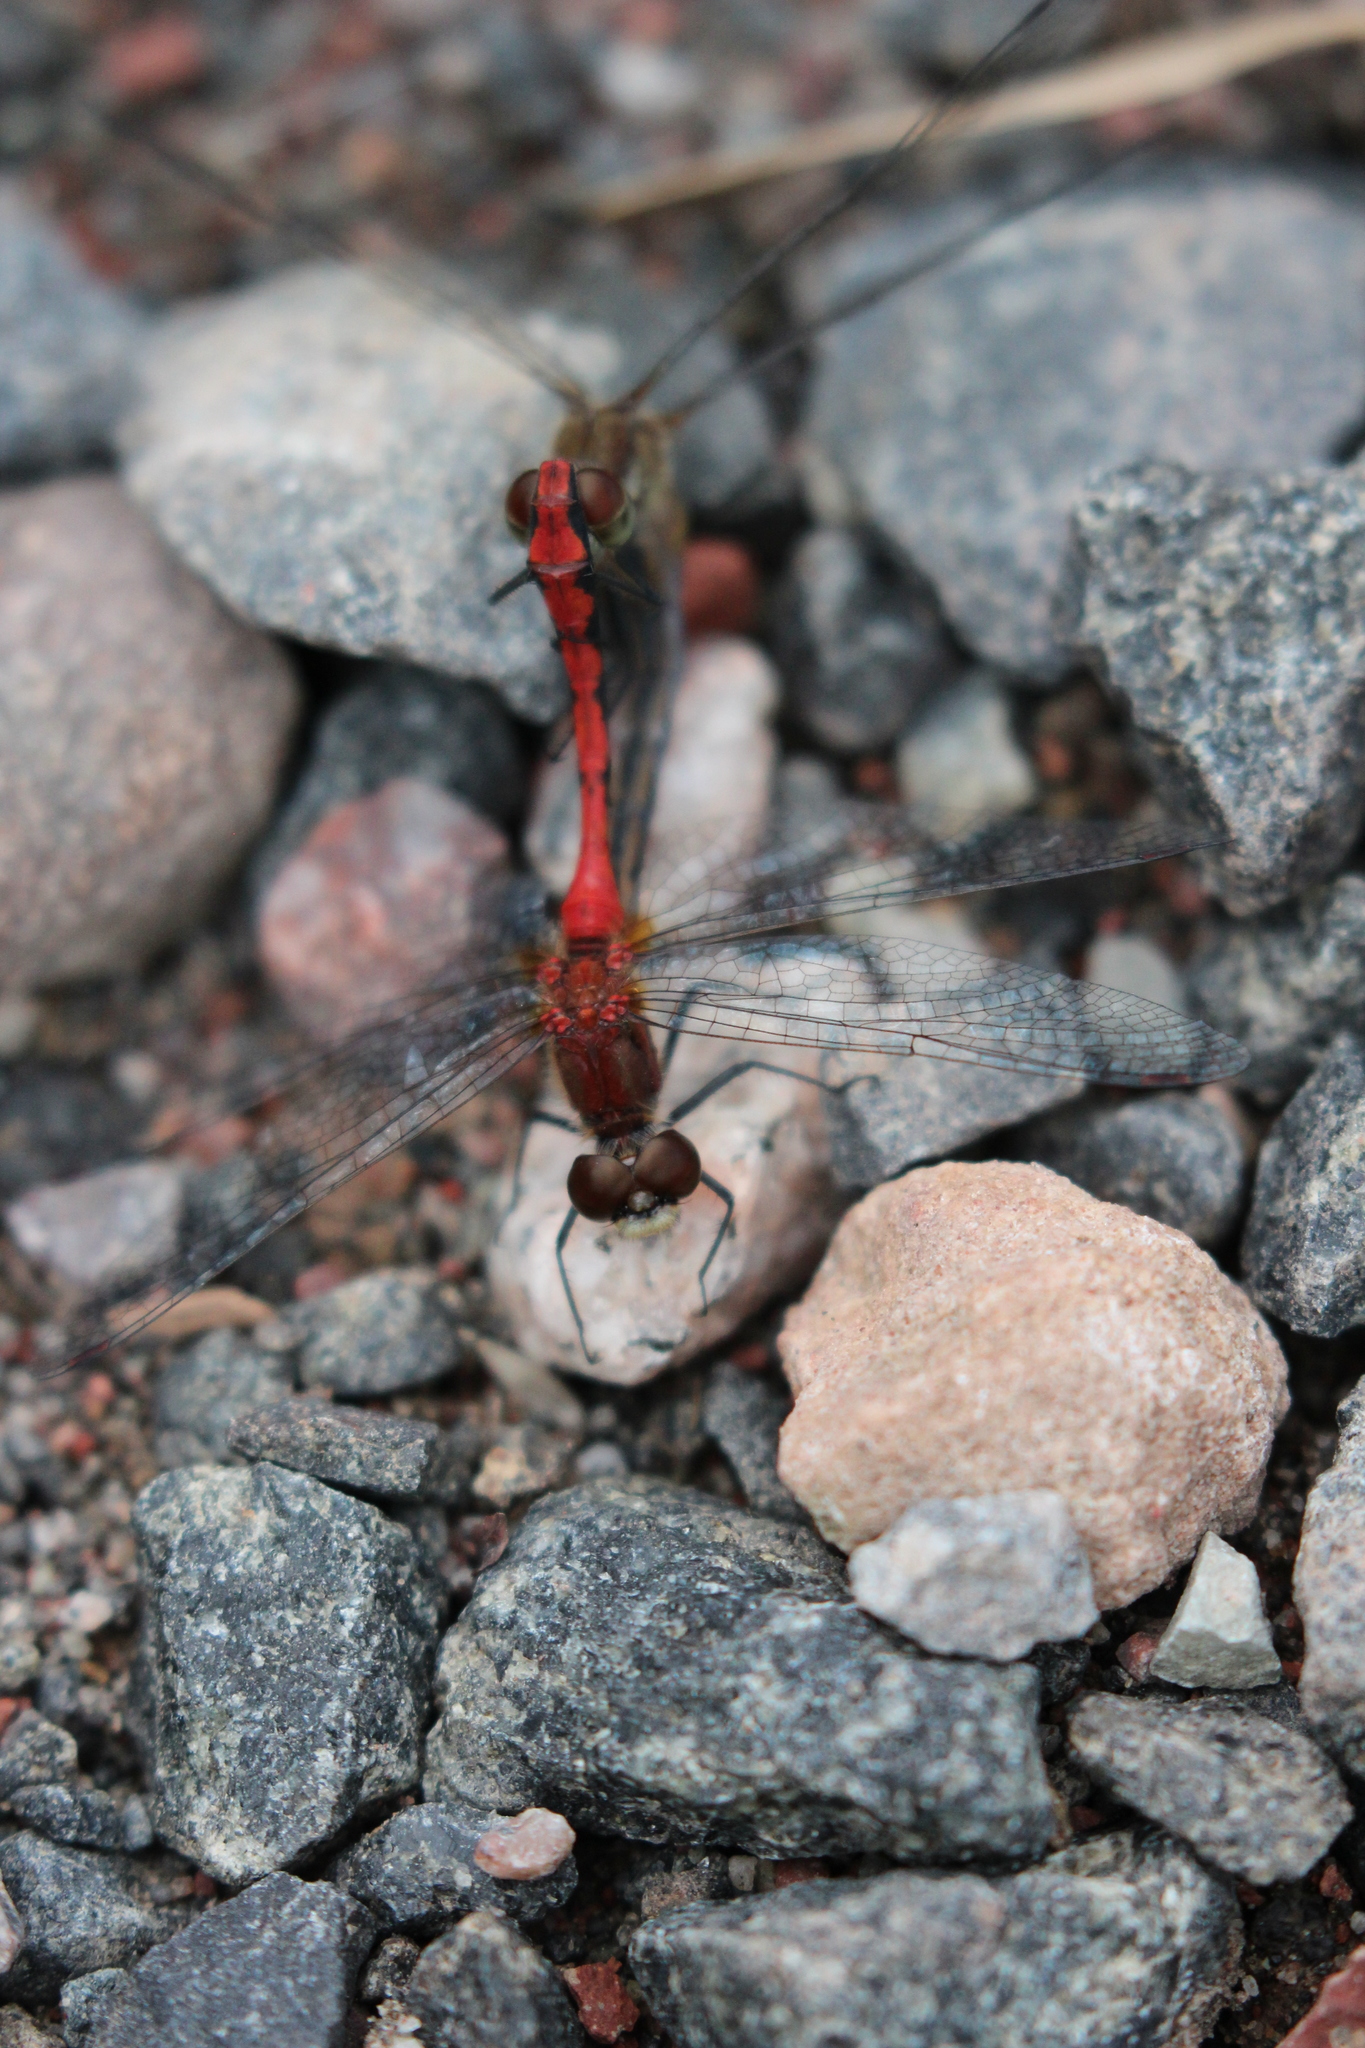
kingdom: Animalia
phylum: Arthropoda
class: Insecta
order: Odonata
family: Libellulidae
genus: Sympetrum
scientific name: Sympetrum obtrusum
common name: White-faced meadowhawk
